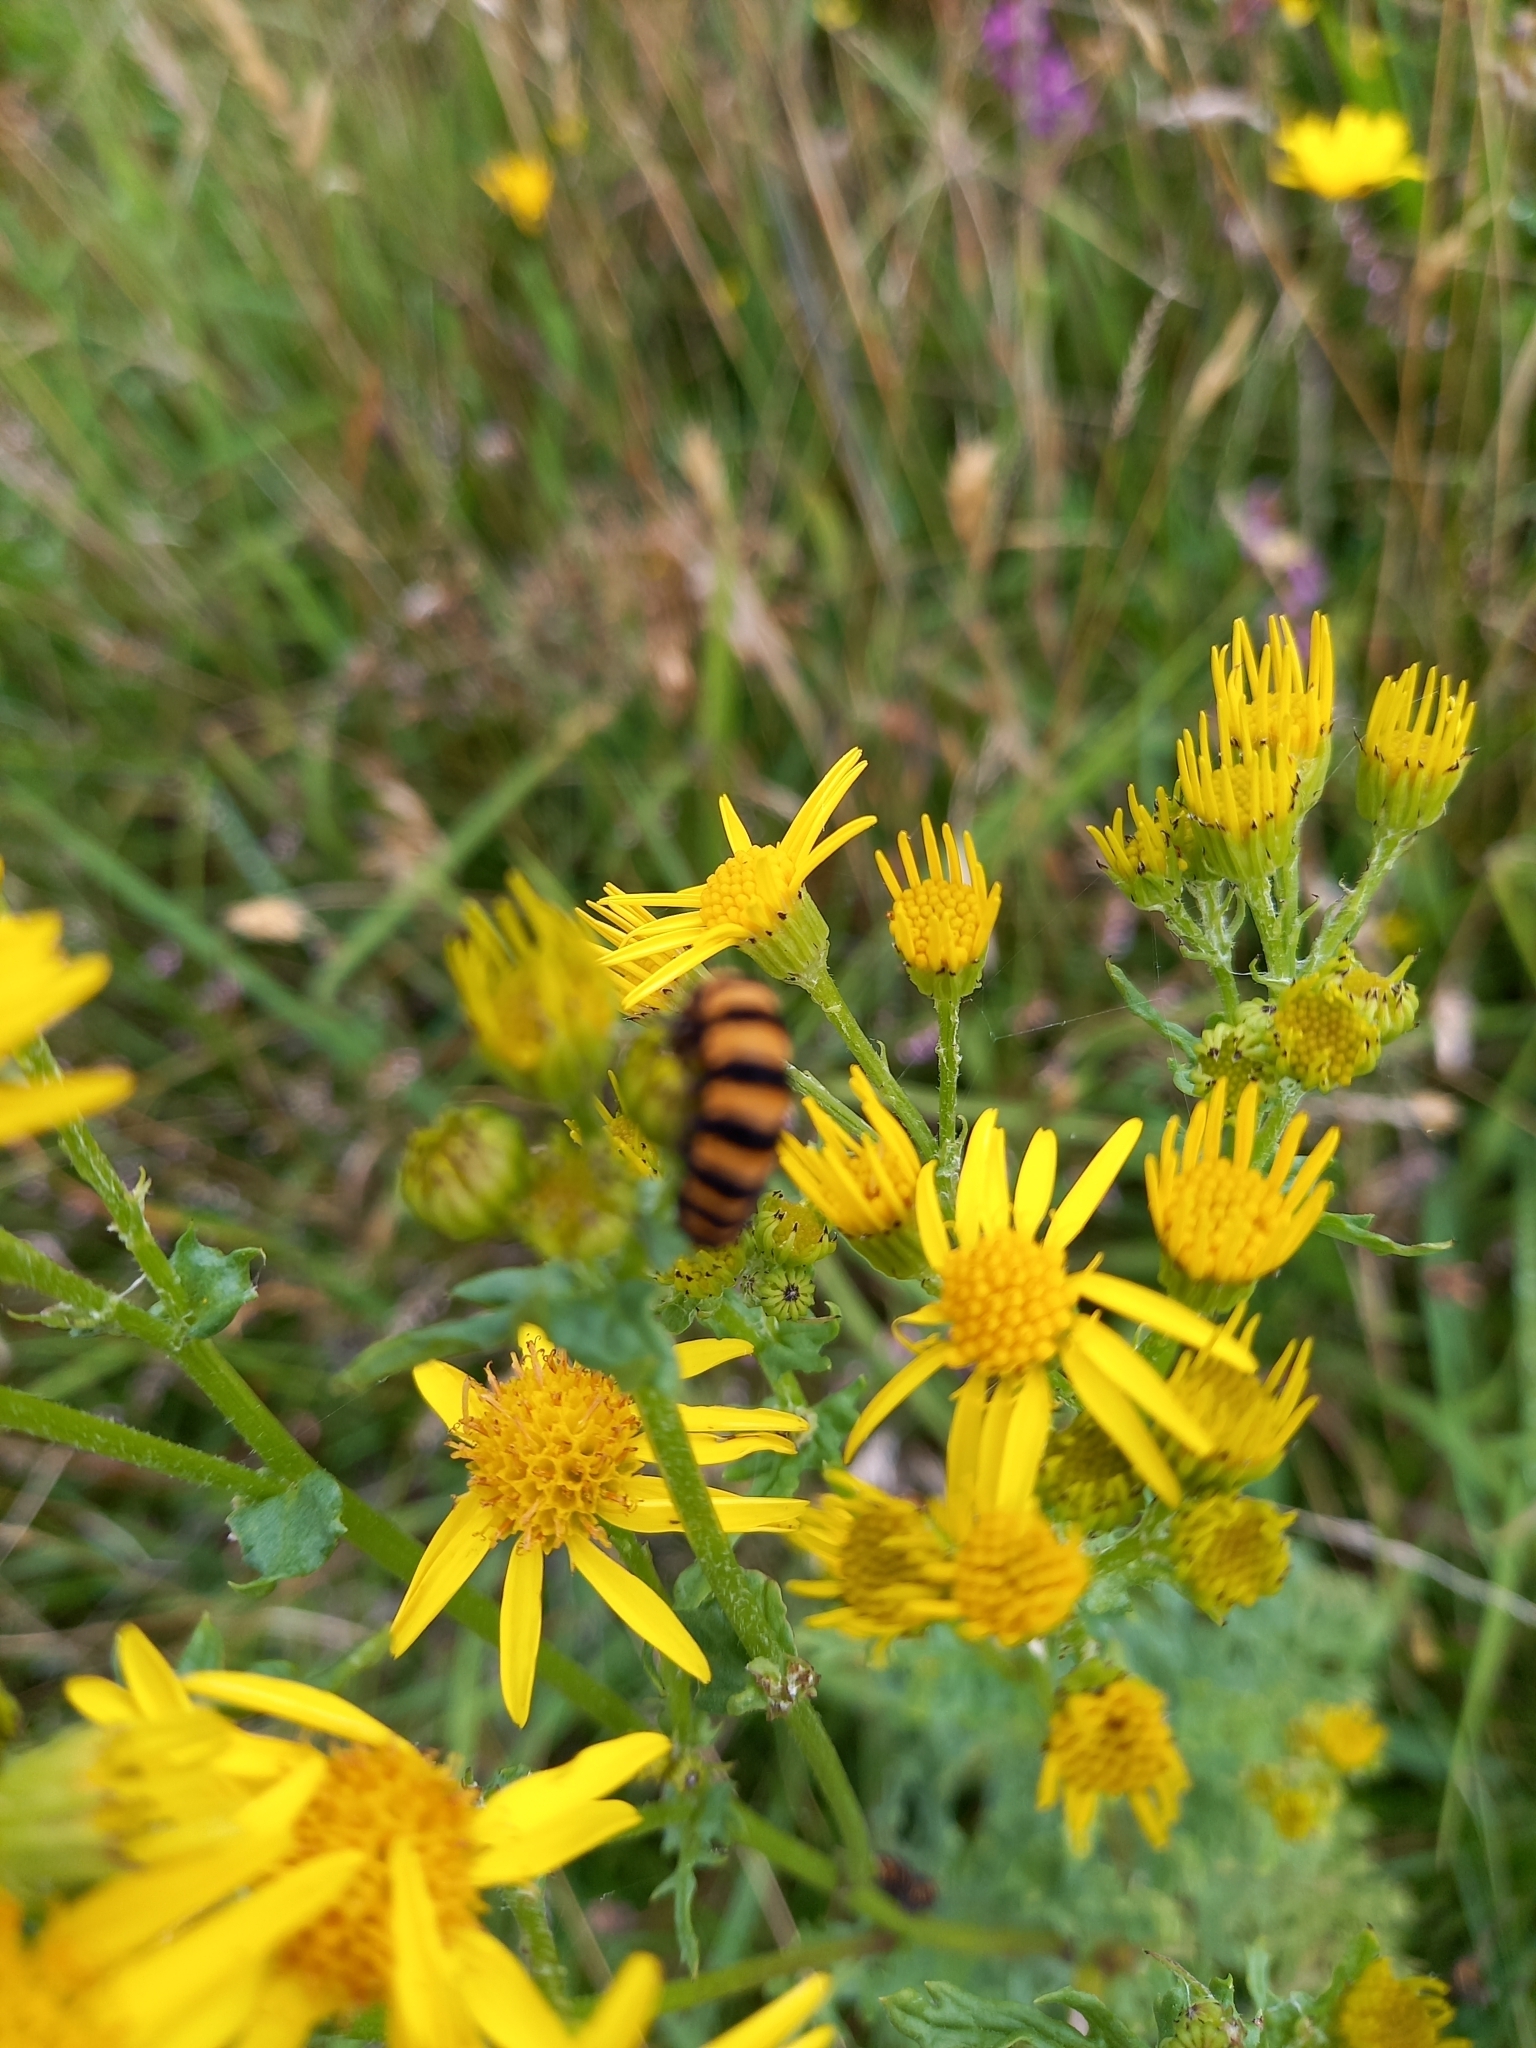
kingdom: Animalia
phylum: Arthropoda
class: Insecta
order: Lepidoptera
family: Erebidae
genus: Tyria
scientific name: Tyria jacobaeae
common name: Cinnabar
